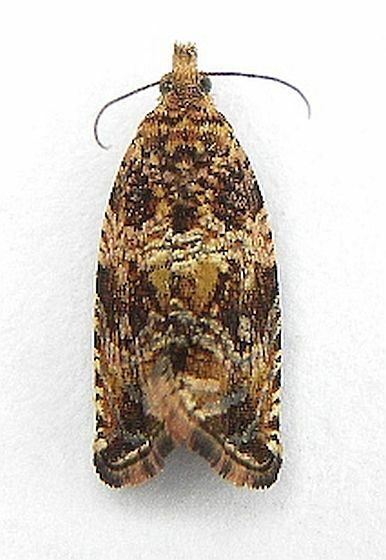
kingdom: Animalia
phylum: Arthropoda
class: Insecta
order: Lepidoptera
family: Tortricidae
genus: Celypha
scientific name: Celypha cespitana
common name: Thyme marble
